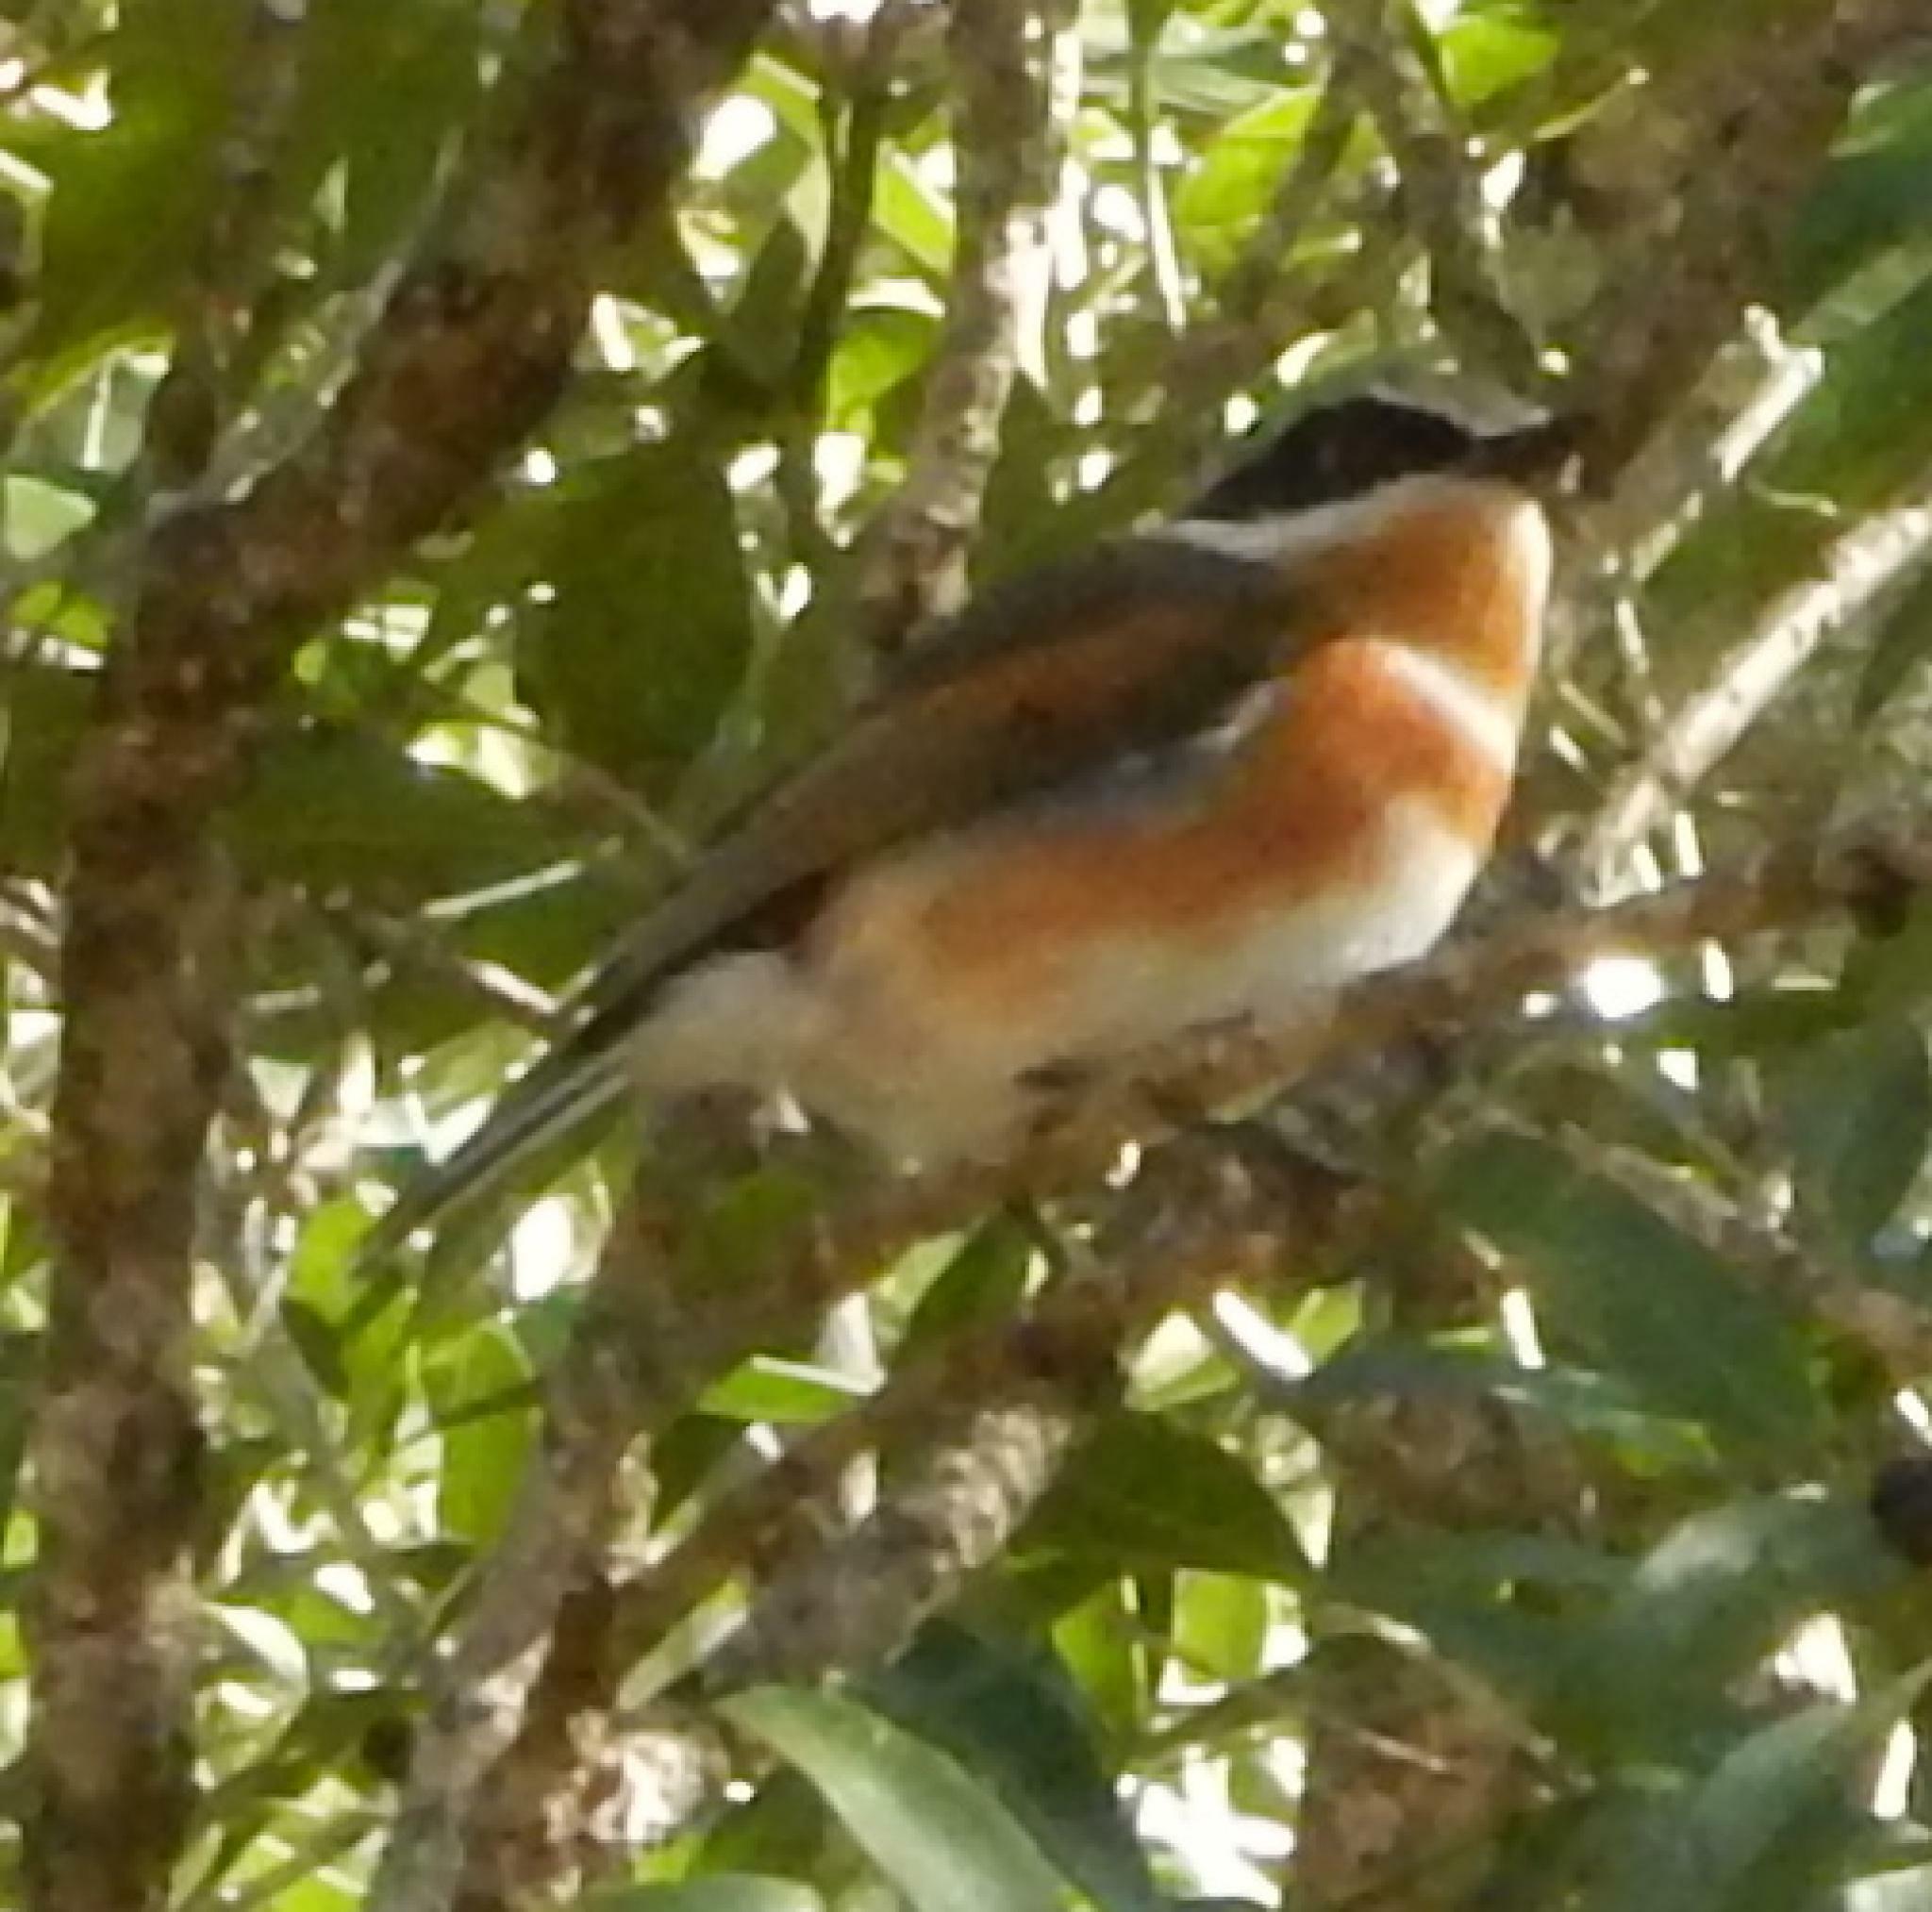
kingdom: Animalia
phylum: Chordata
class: Aves
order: Passeriformes
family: Platysteiridae
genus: Batis
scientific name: Batis capensis
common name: Cape batis
